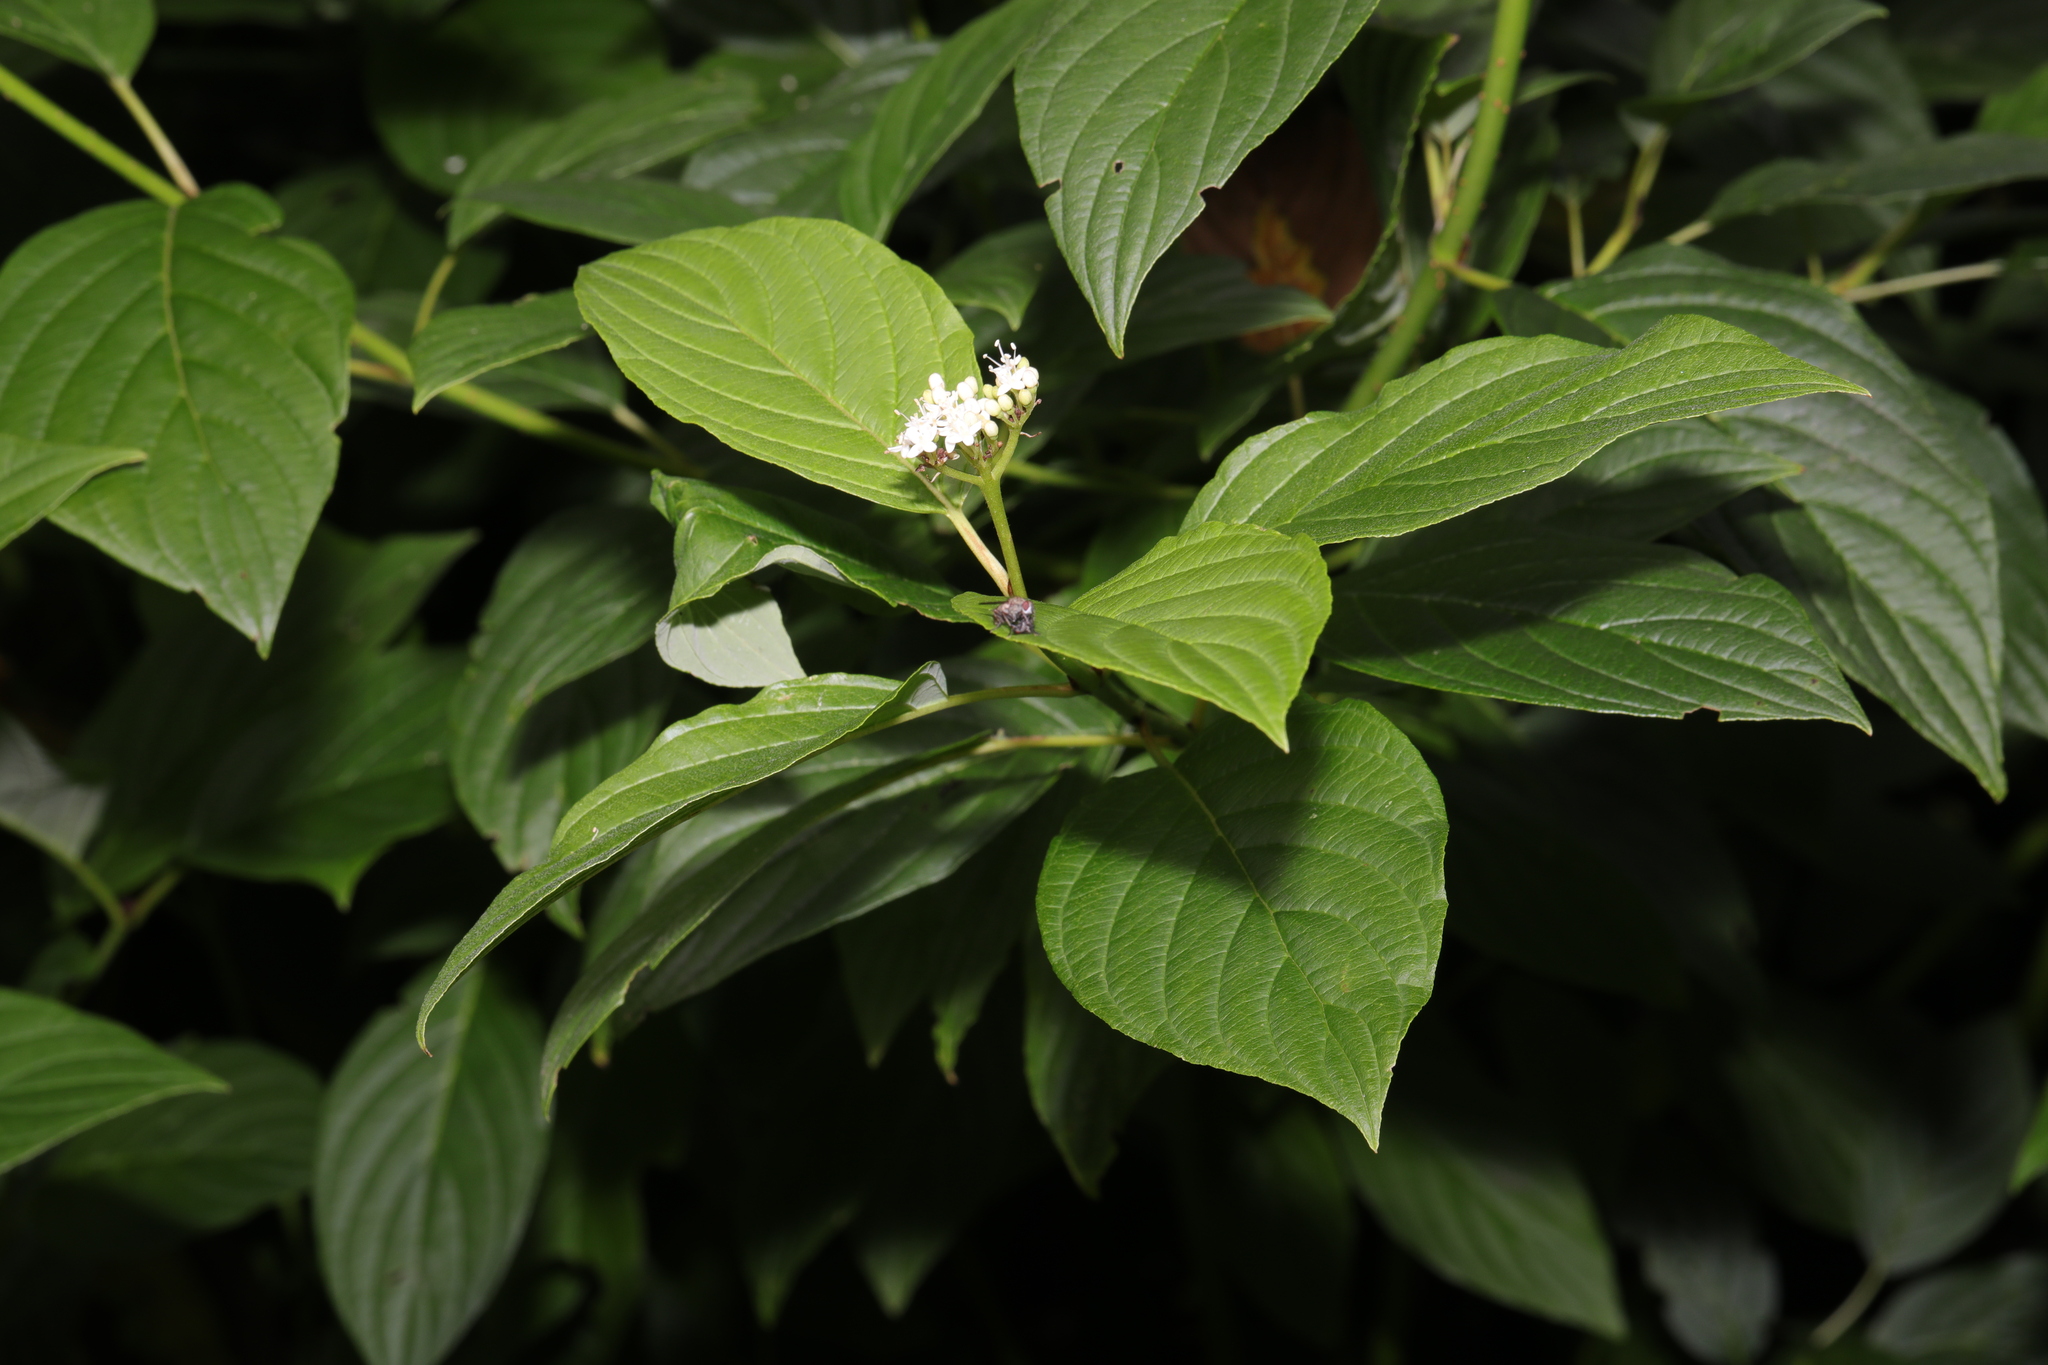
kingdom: Plantae
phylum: Tracheophyta
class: Magnoliopsida
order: Cornales
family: Cornaceae
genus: Cornus
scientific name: Cornus alba
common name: White dogwood
